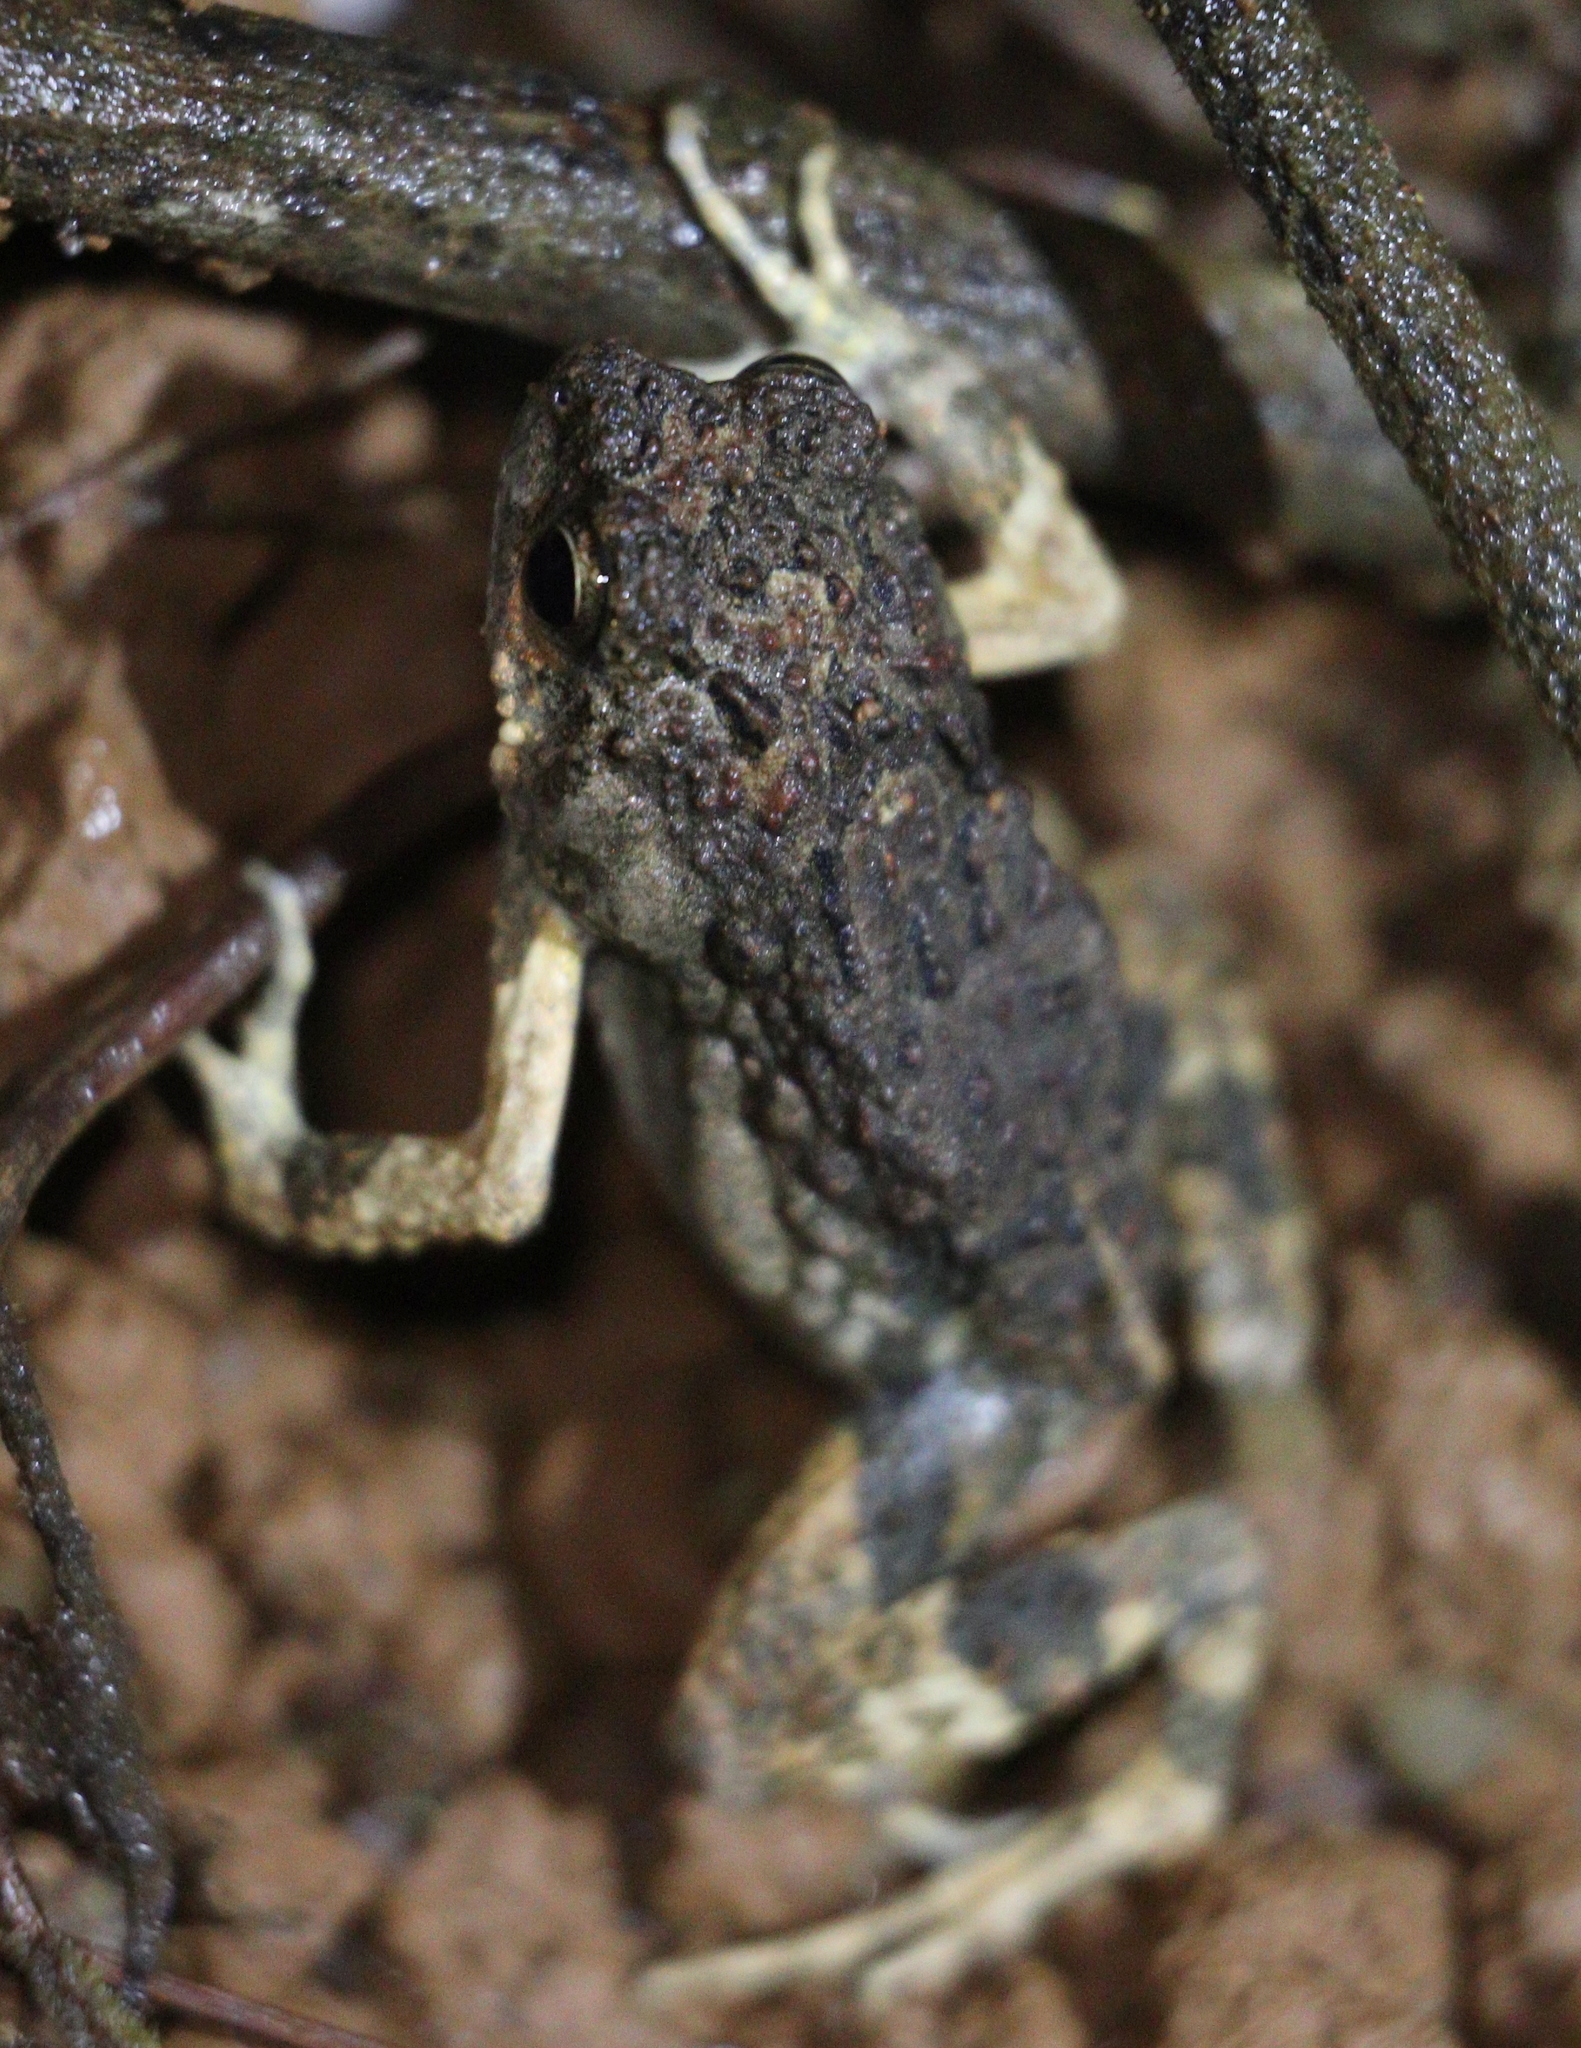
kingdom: Animalia
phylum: Chordata
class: Amphibia
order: Anura
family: Leptodactylidae
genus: Engystomops
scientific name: Engystomops pustulosus
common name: Tungara frog
